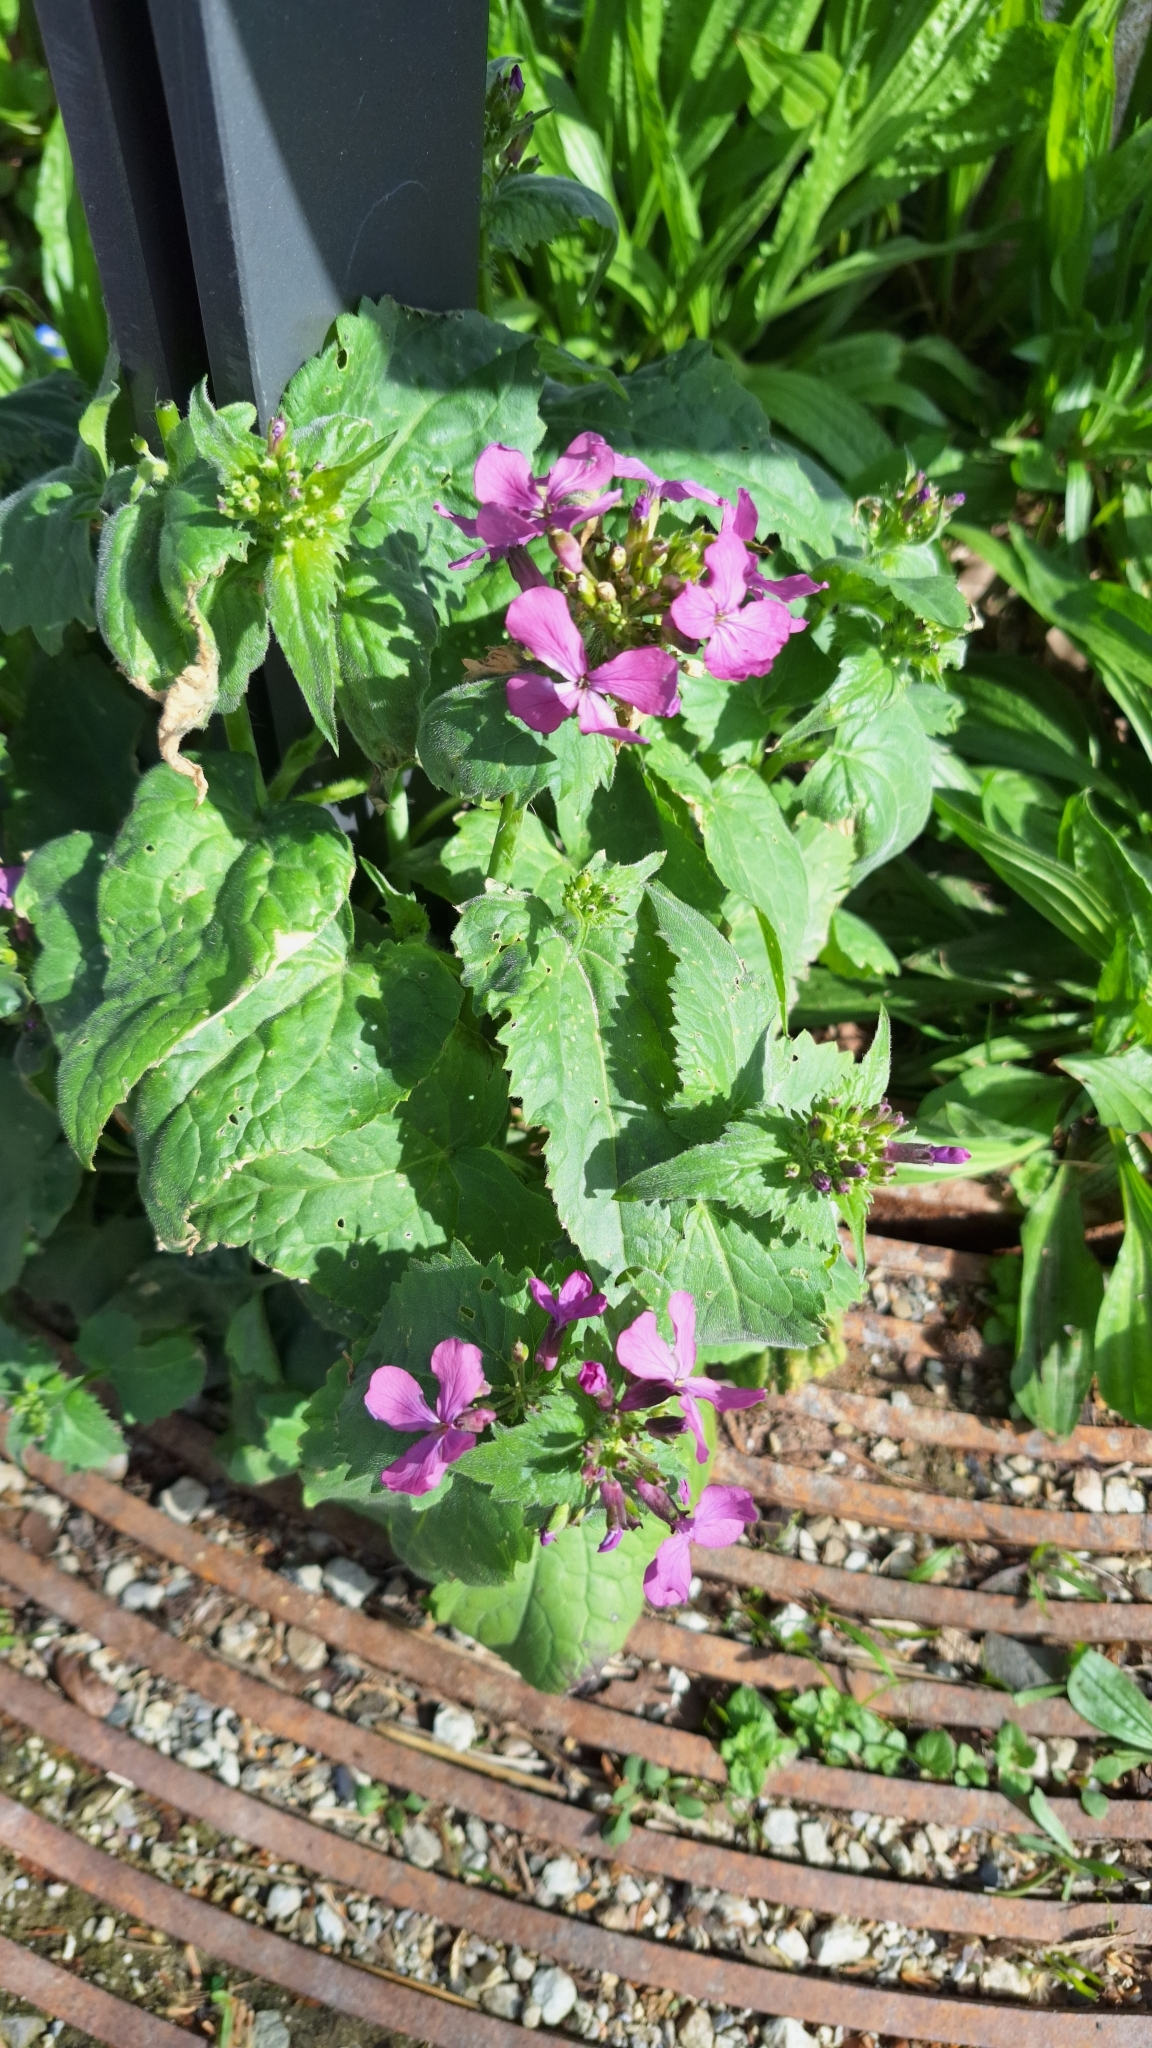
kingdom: Plantae
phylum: Tracheophyta
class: Magnoliopsida
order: Brassicales
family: Brassicaceae
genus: Lunaria
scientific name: Lunaria annua
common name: Honesty
